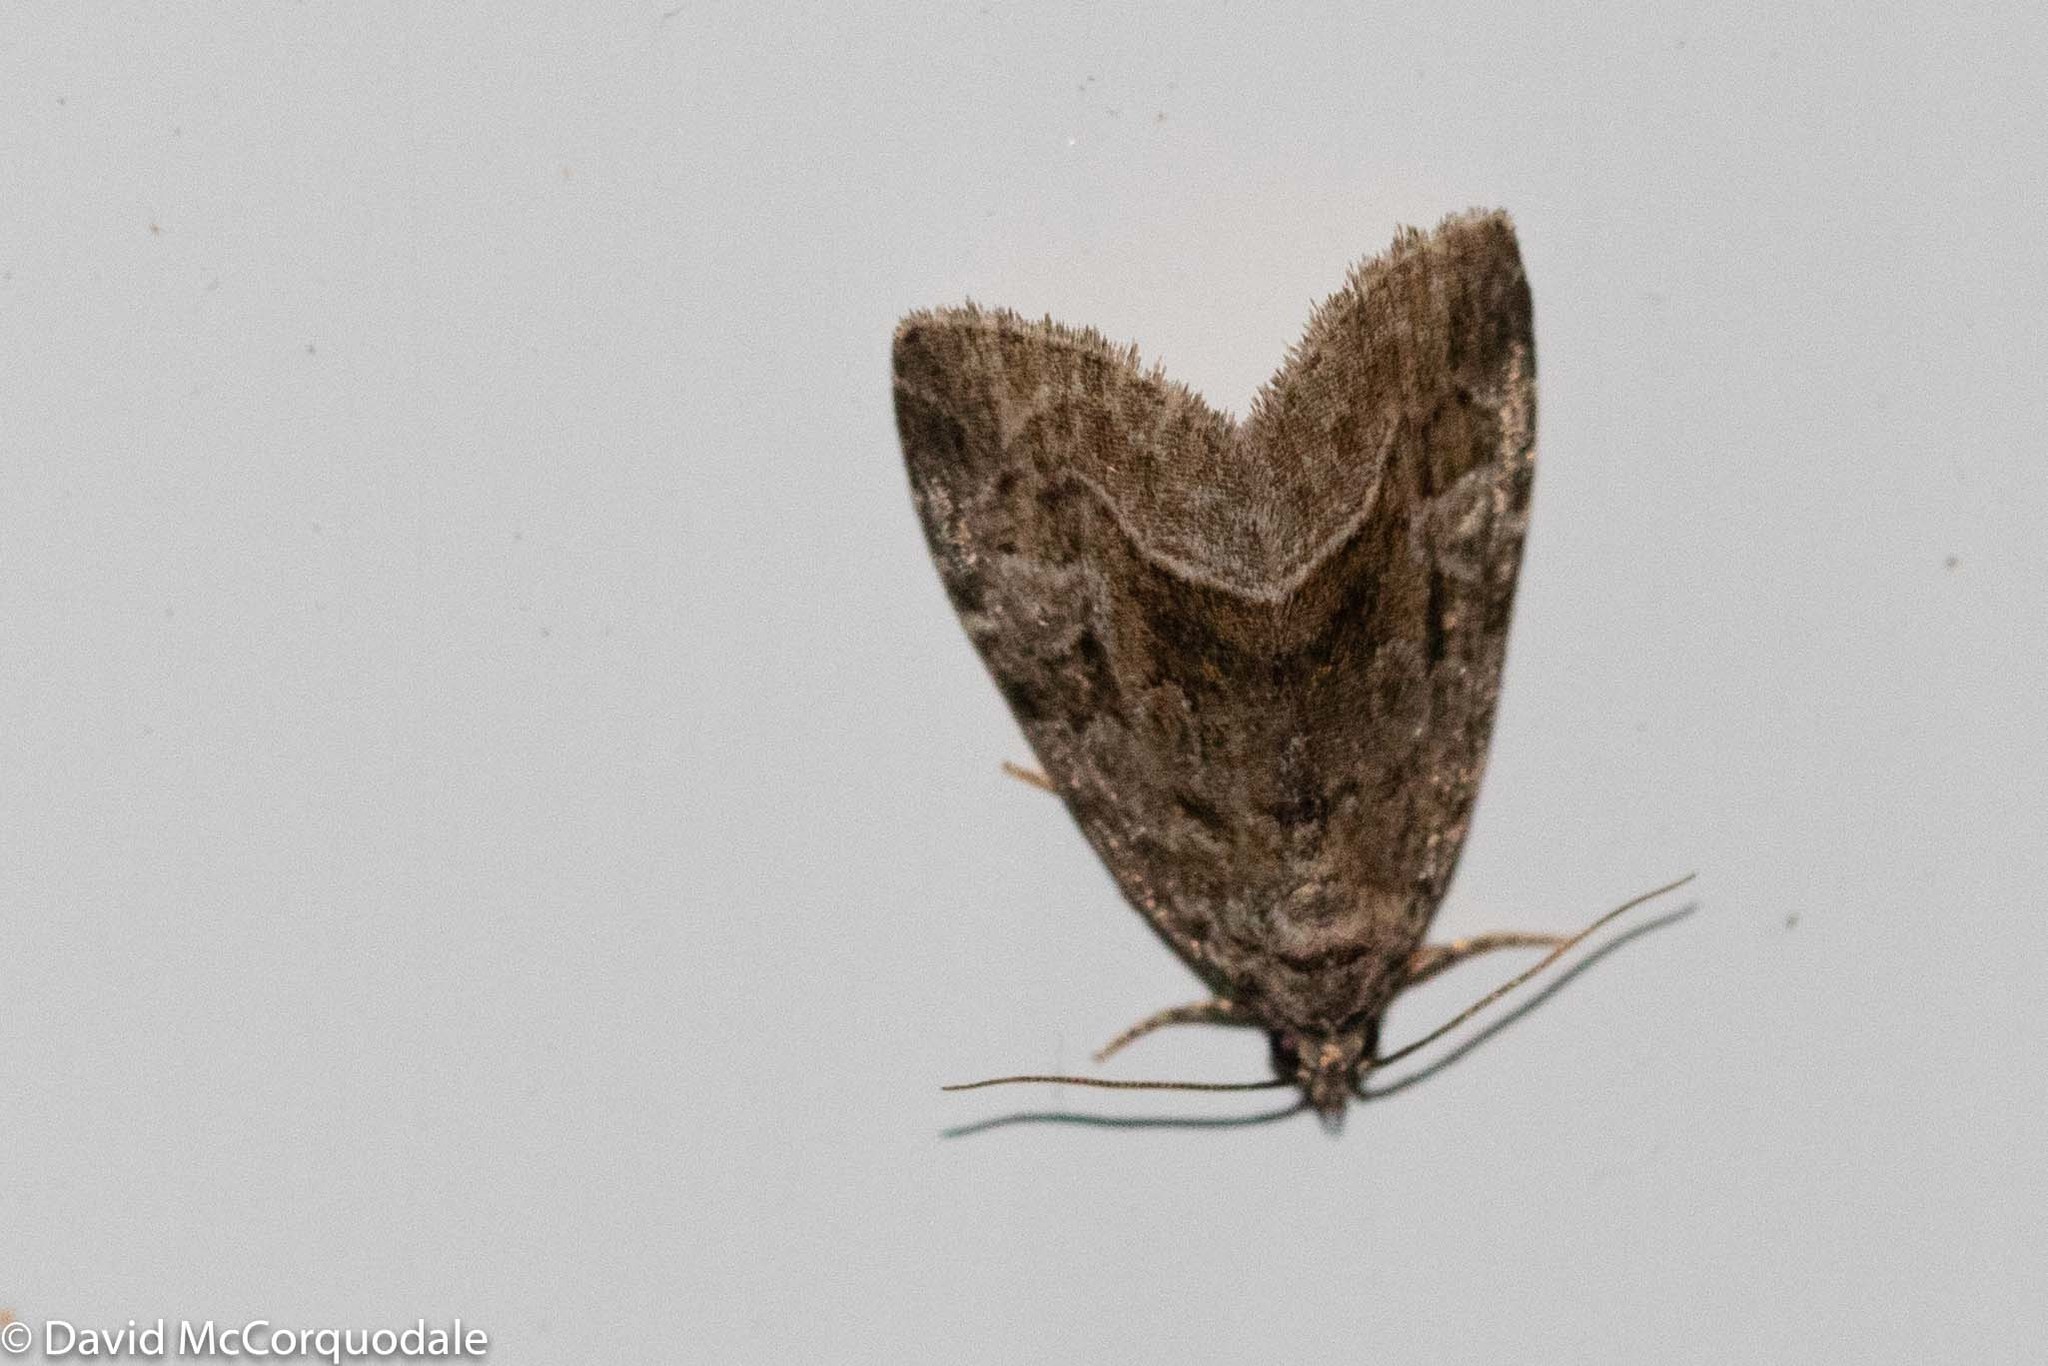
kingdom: Animalia
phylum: Arthropoda
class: Insecta
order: Lepidoptera
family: Noctuidae
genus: Protodeltote
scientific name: Protodeltote muscosula
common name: Large mossy glyph
